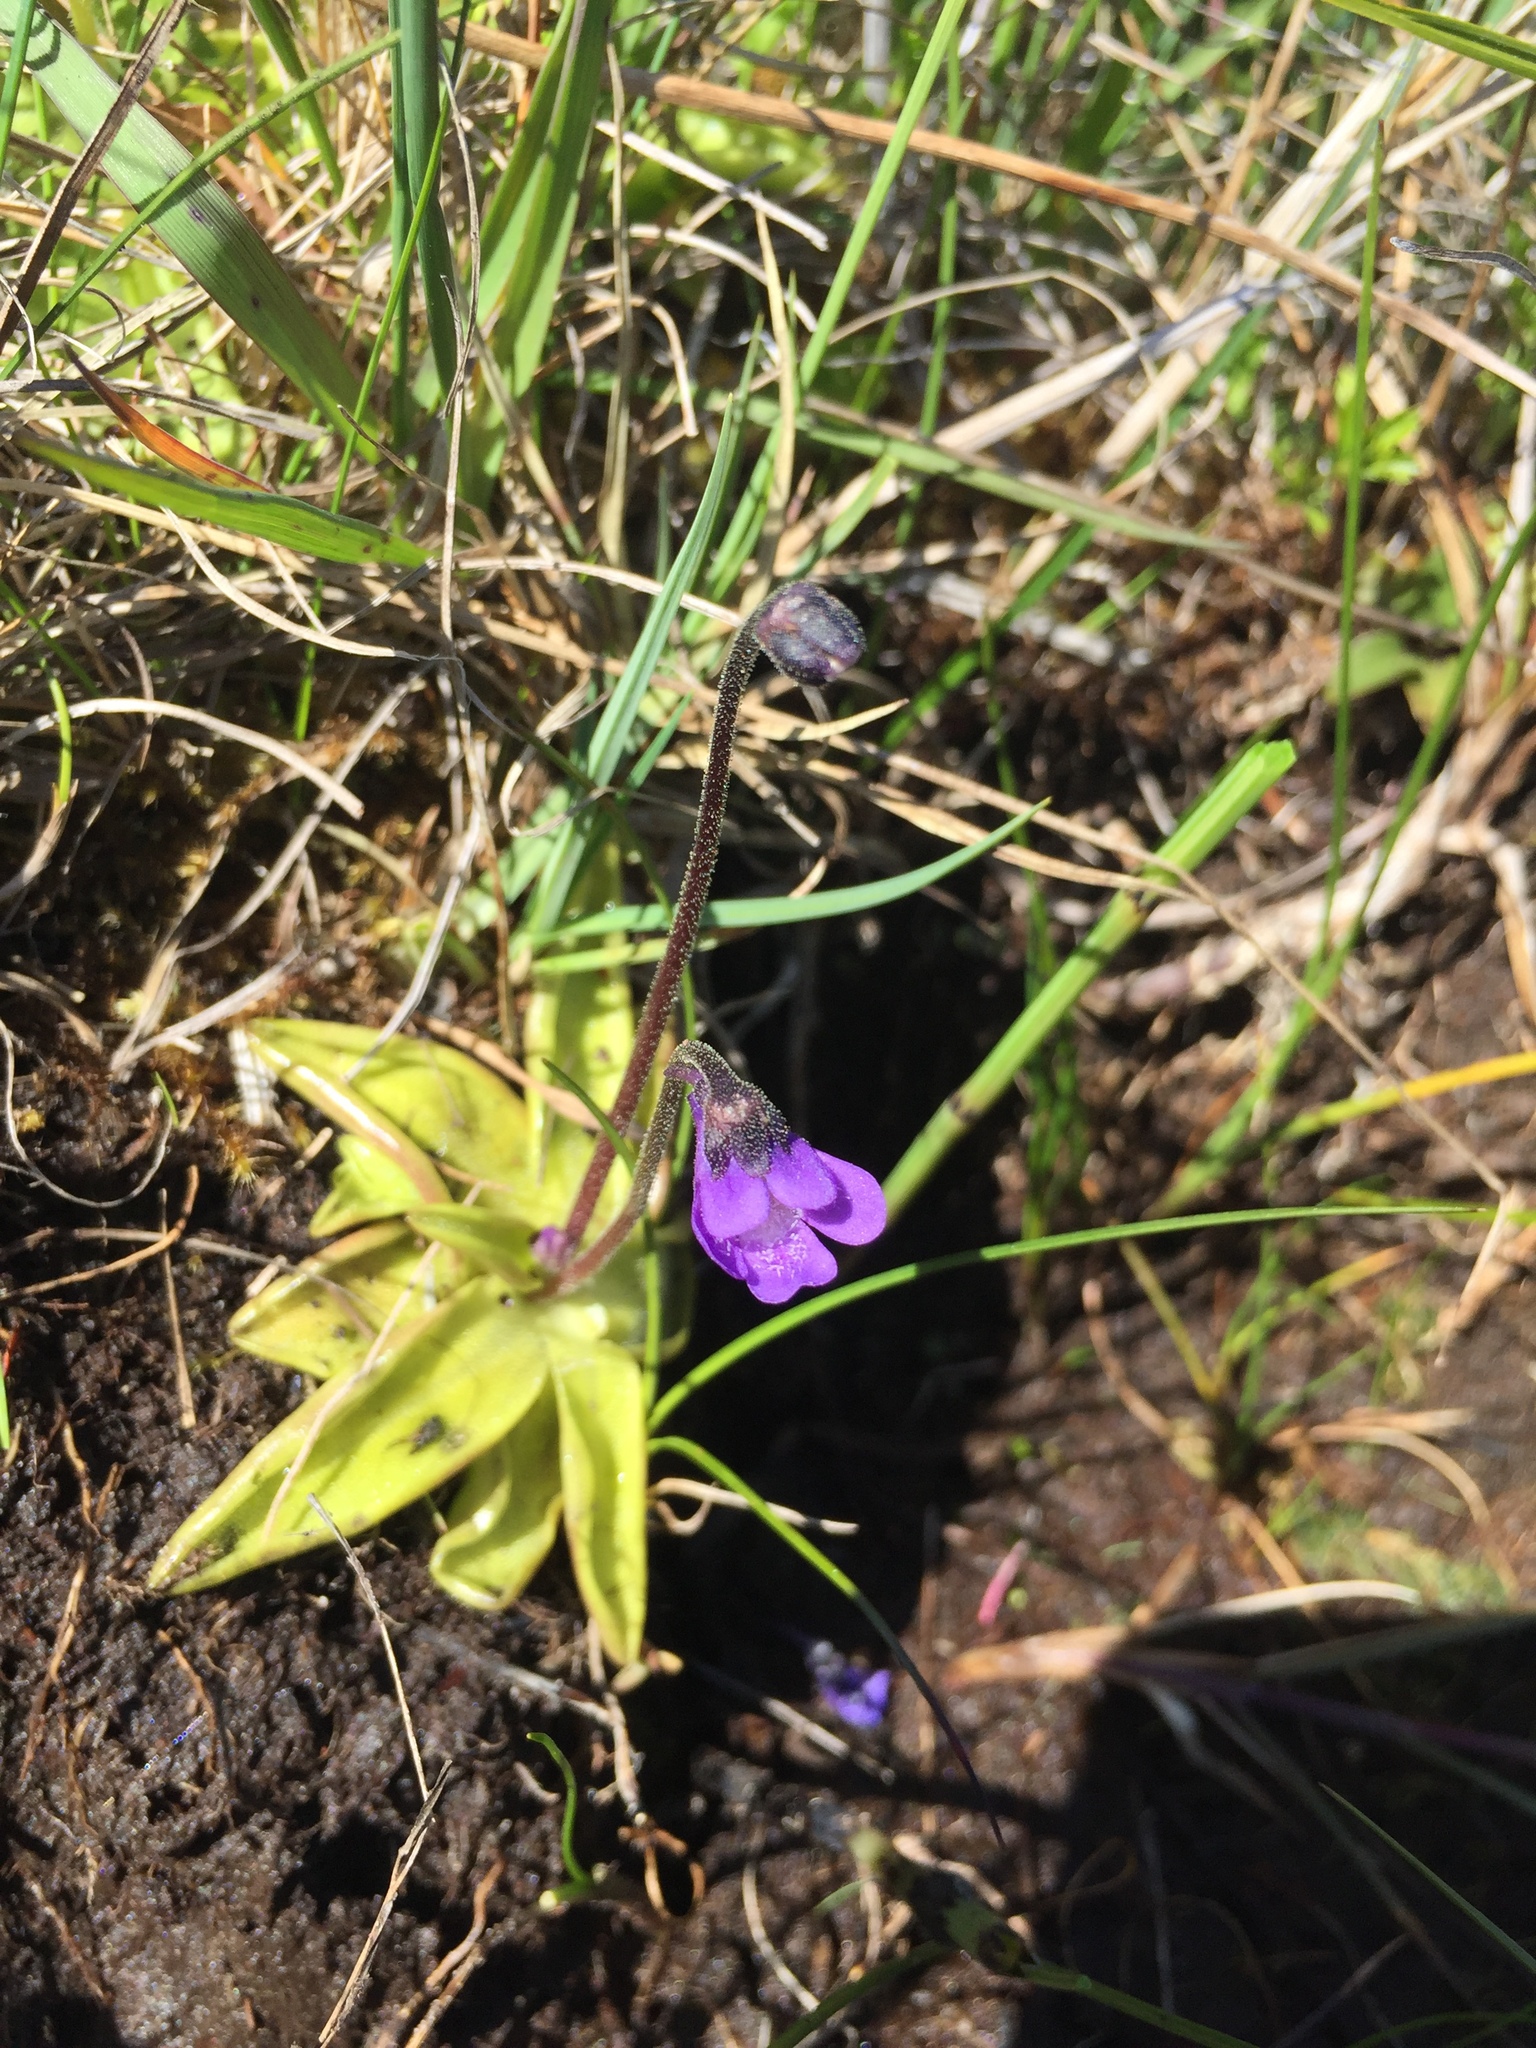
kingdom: Plantae
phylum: Tracheophyta
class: Magnoliopsida
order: Lamiales
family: Lentibulariaceae
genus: Pinguicula
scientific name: Pinguicula vulgaris
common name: Common butterwort
